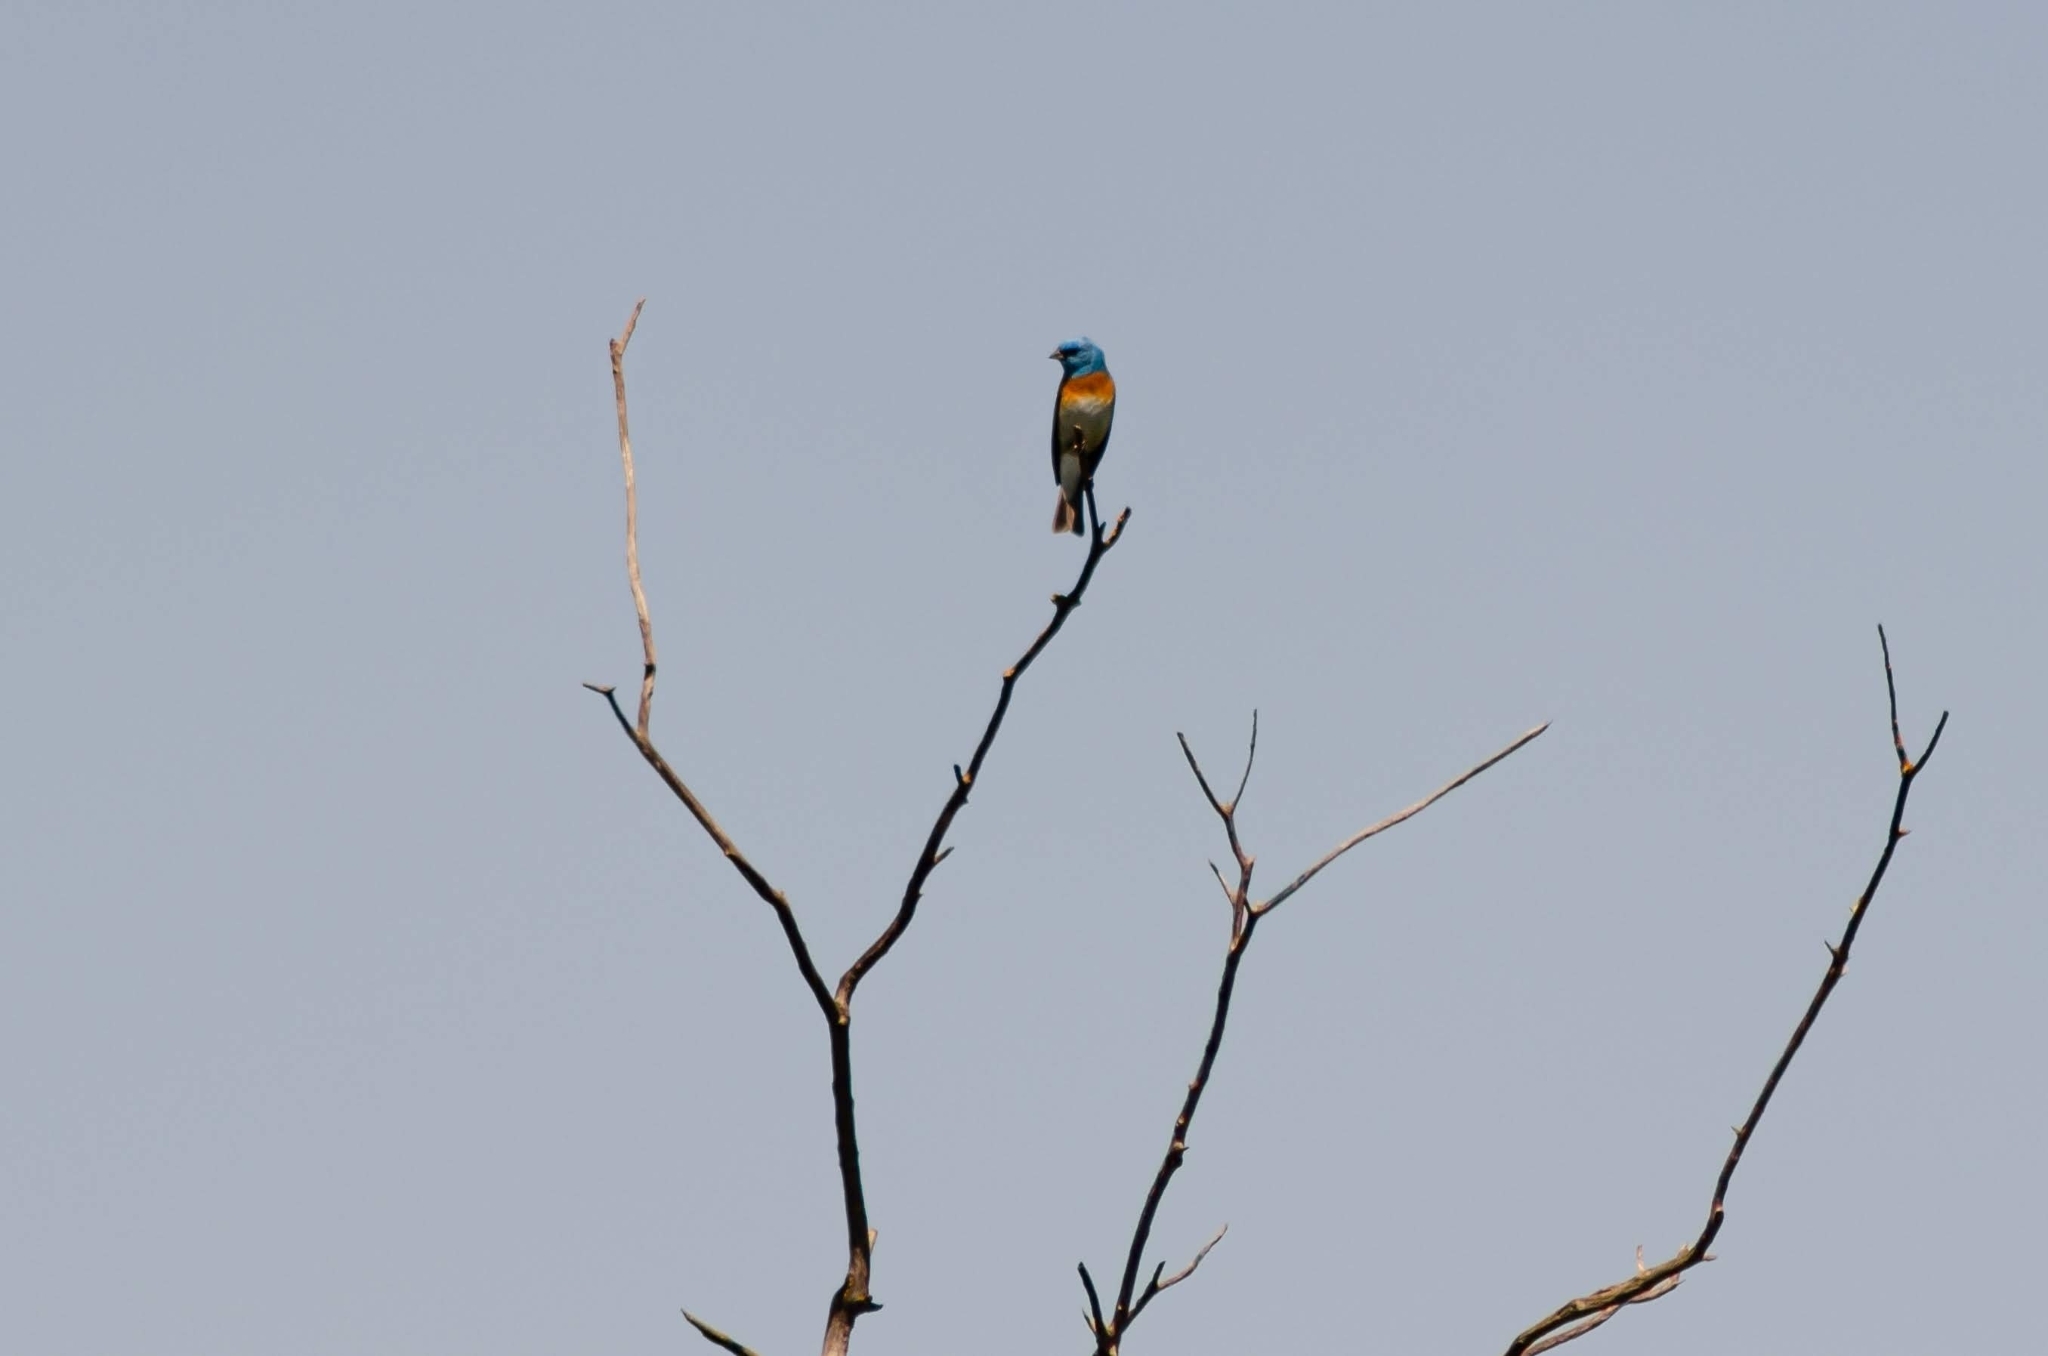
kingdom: Animalia
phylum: Chordata
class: Aves
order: Passeriformes
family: Cardinalidae
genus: Passerina
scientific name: Passerina amoena
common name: Lazuli bunting
